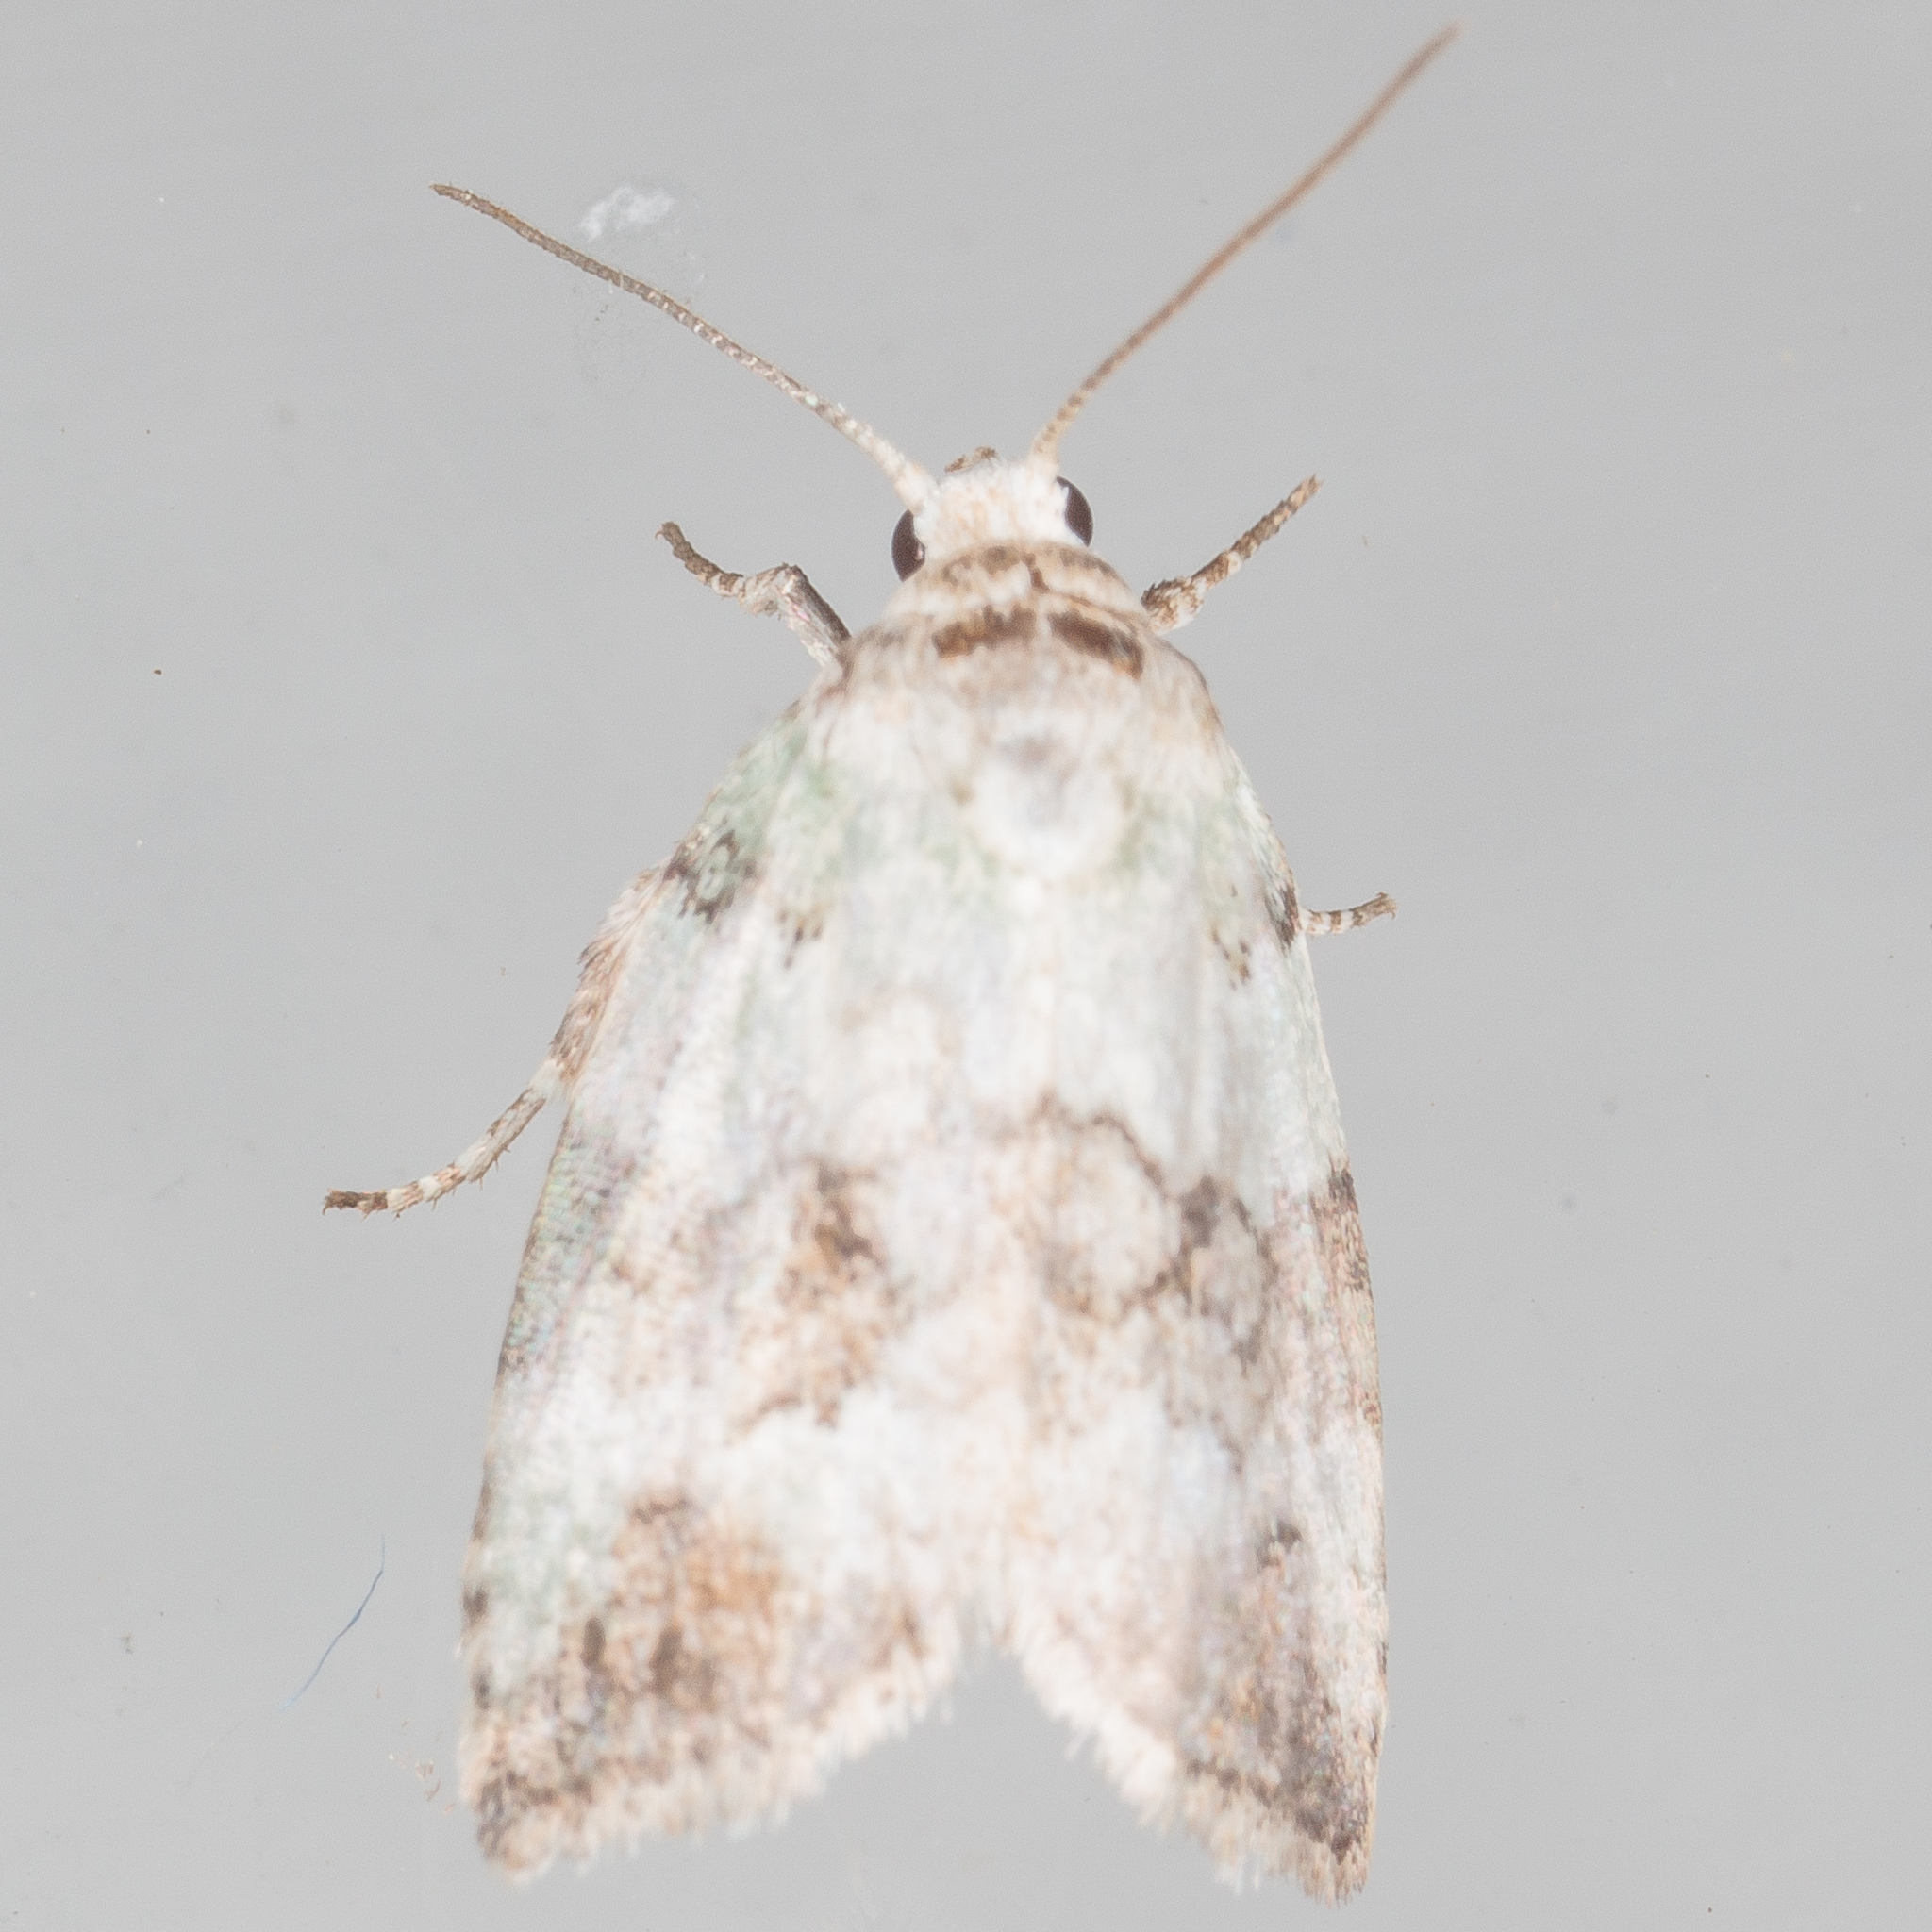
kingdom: Animalia
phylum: Arthropoda
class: Insecta
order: Lepidoptera
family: Nolidae
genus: Afrida
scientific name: Afrida ydatodes
